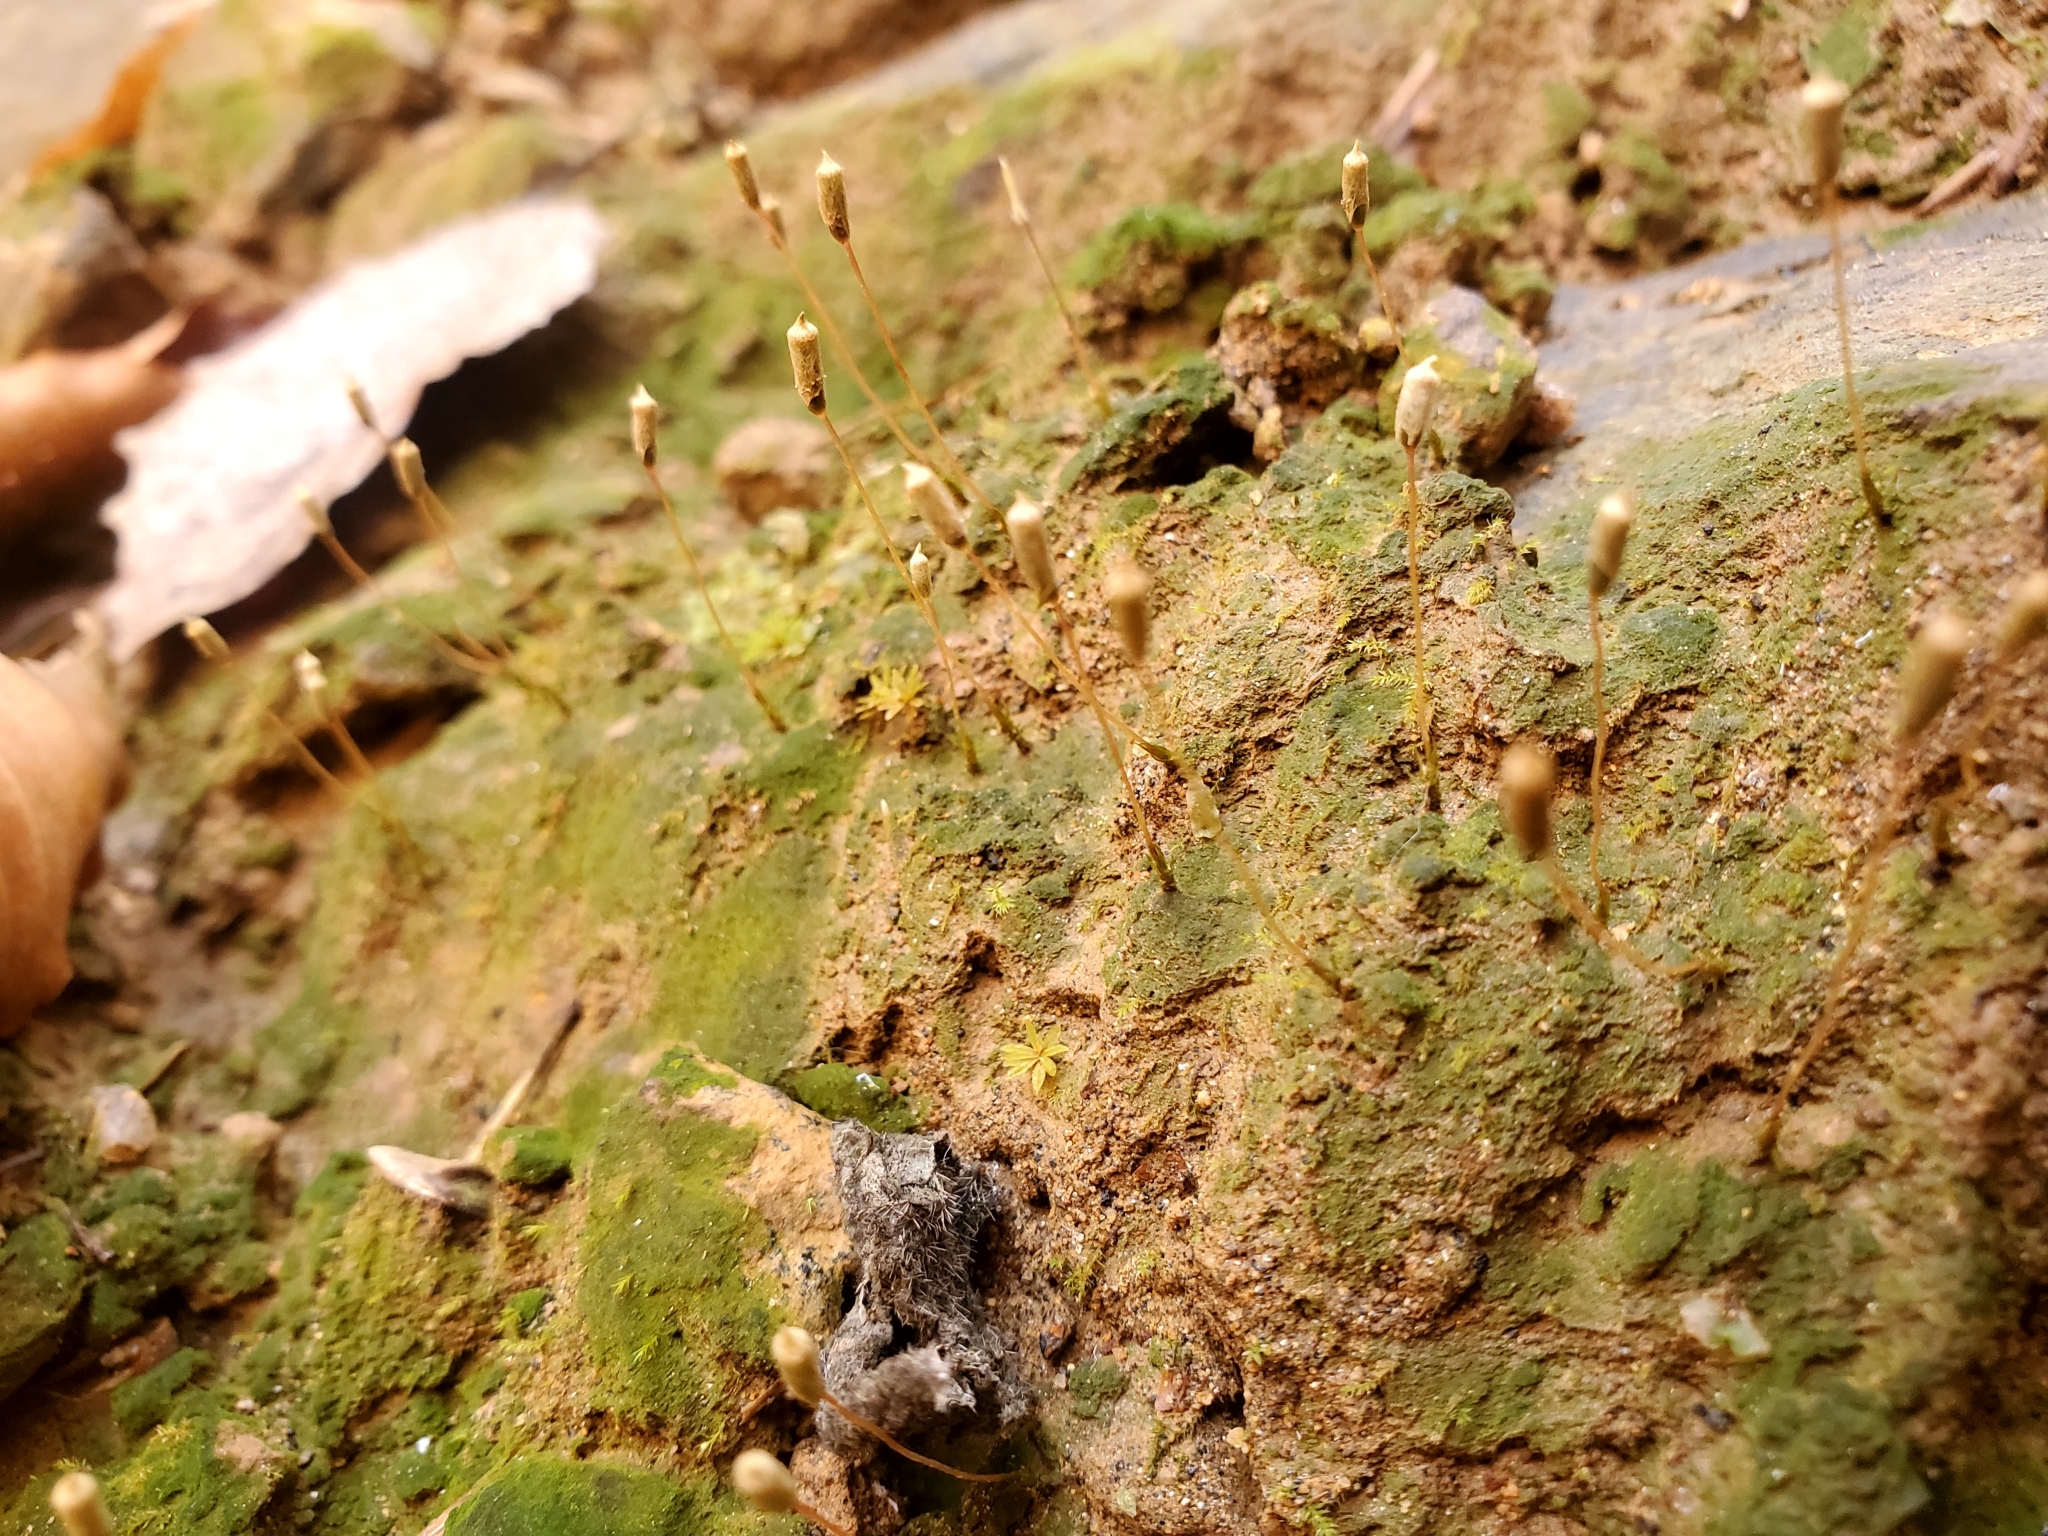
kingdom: Plantae
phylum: Bryophyta
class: Polytrichopsida
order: Polytrichales
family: Polytrichaceae
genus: Pogonatum
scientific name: Pogonatum pensilvanicum
